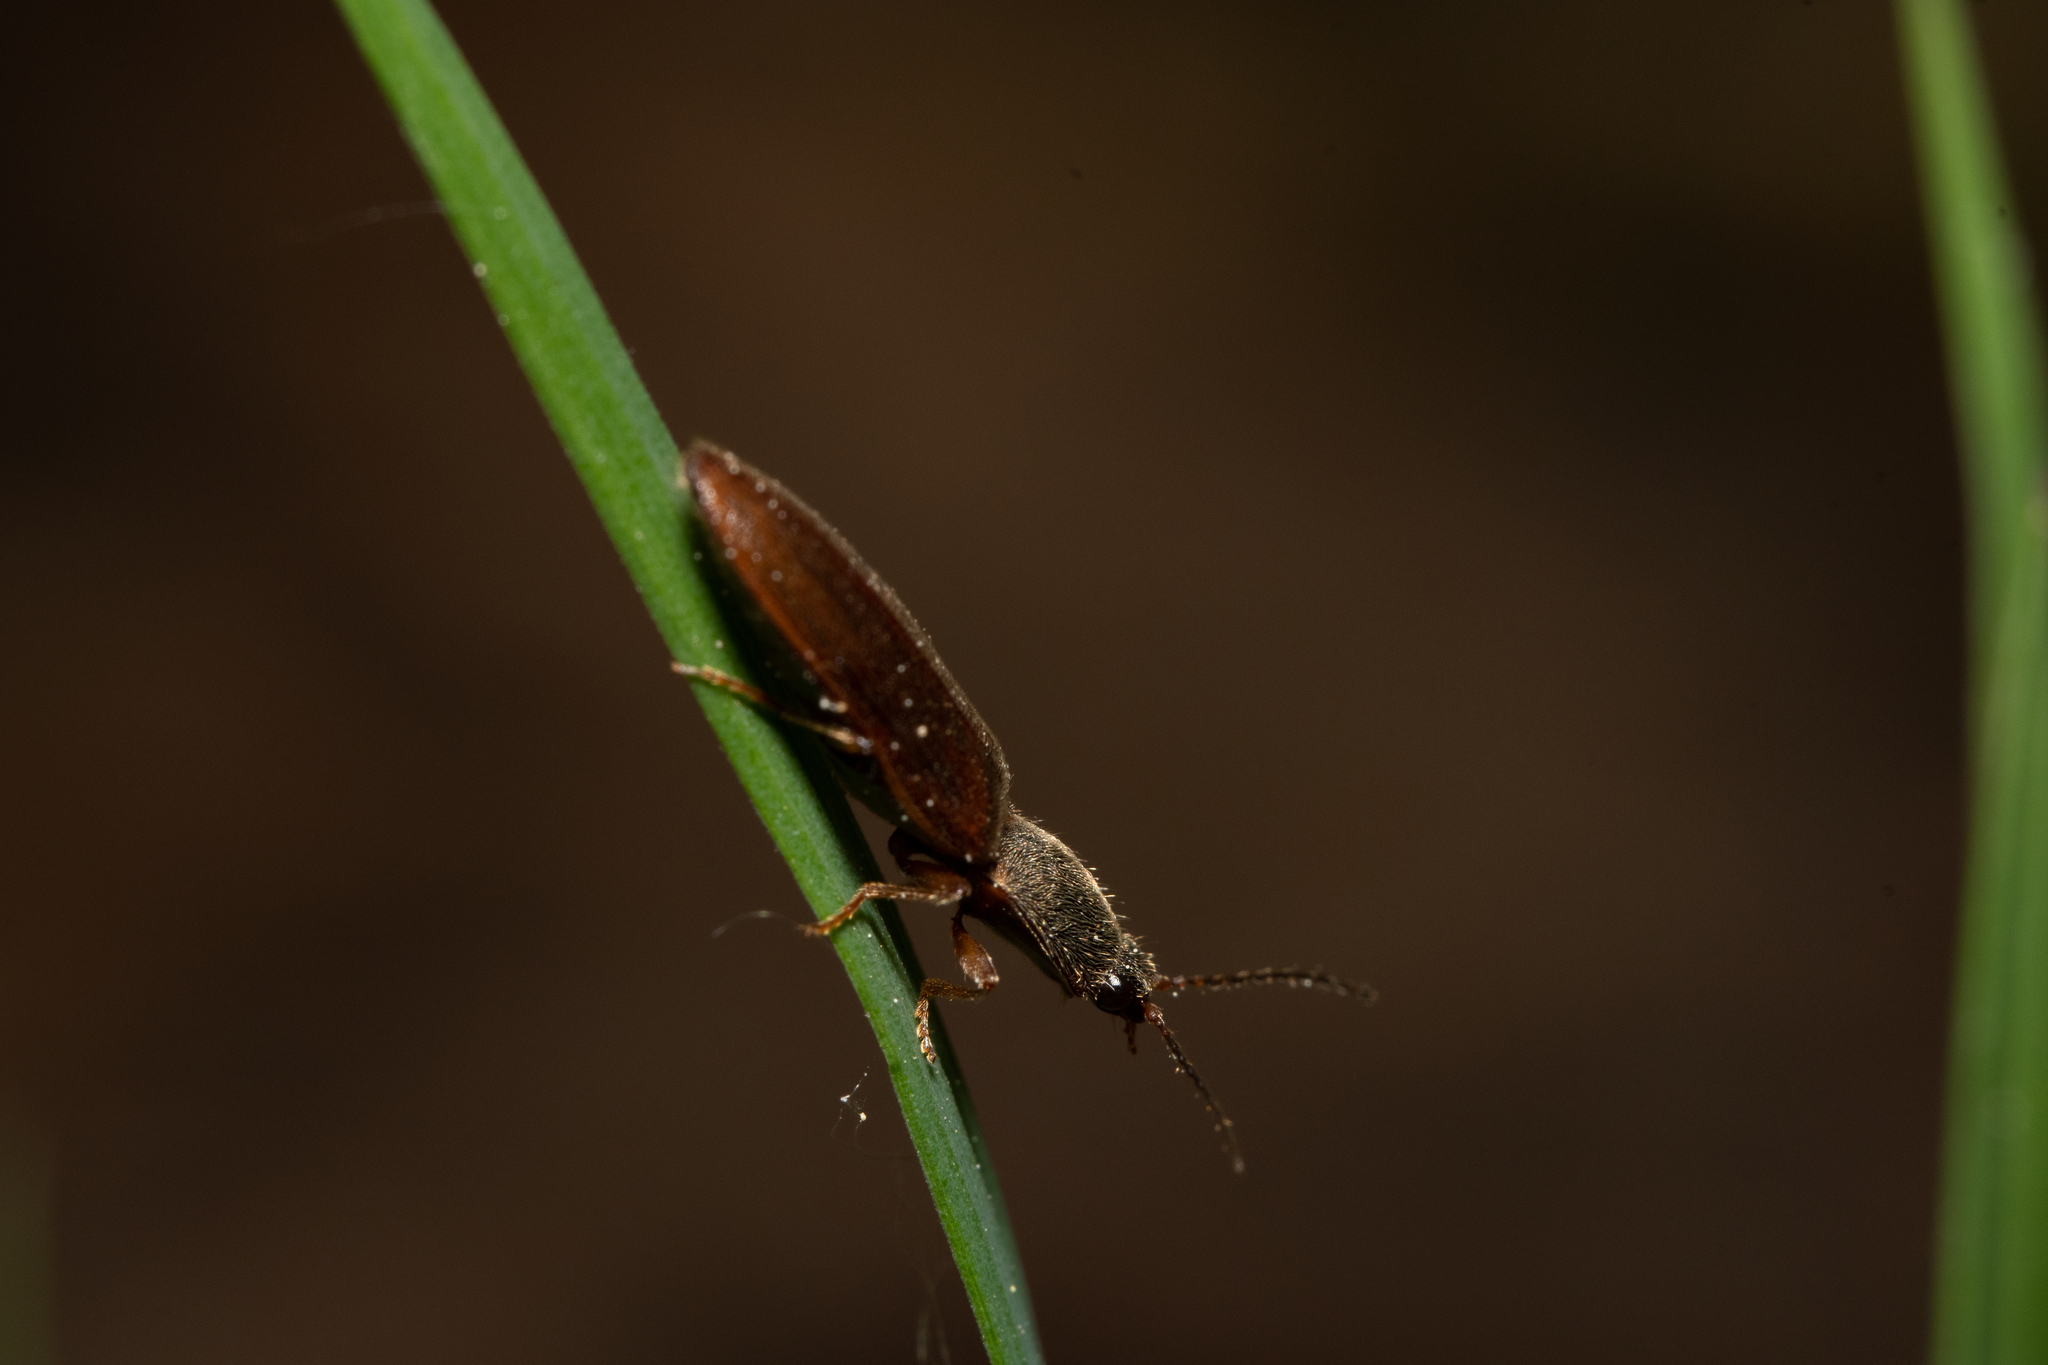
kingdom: Animalia
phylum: Arthropoda
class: Insecta
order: Coleoptera
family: Elateridae
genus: Athous
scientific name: Athous subfuscus
